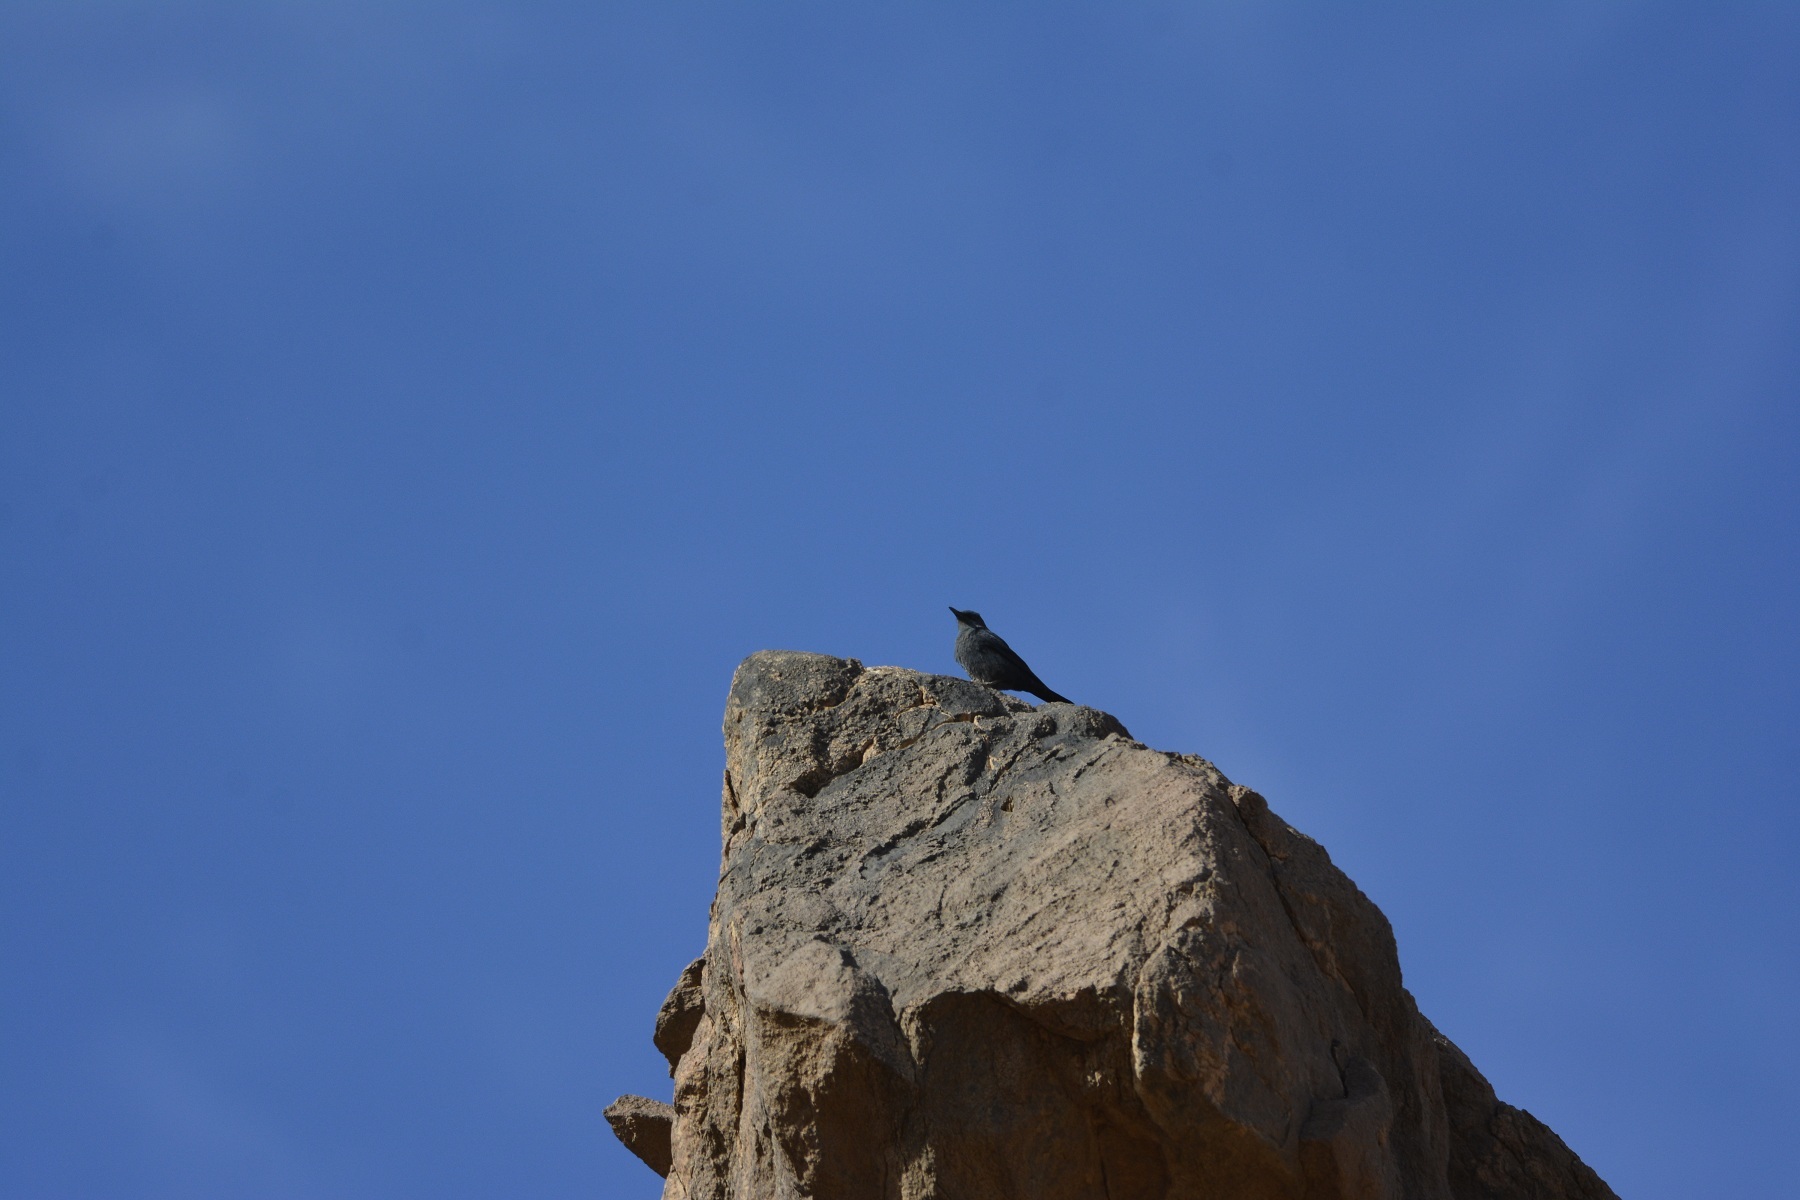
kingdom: Animalia
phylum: Chordata
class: Aves
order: Passeriformes
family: Muscicapidae
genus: Monticola
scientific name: Monticola solitarius
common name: Blue rock thrush
